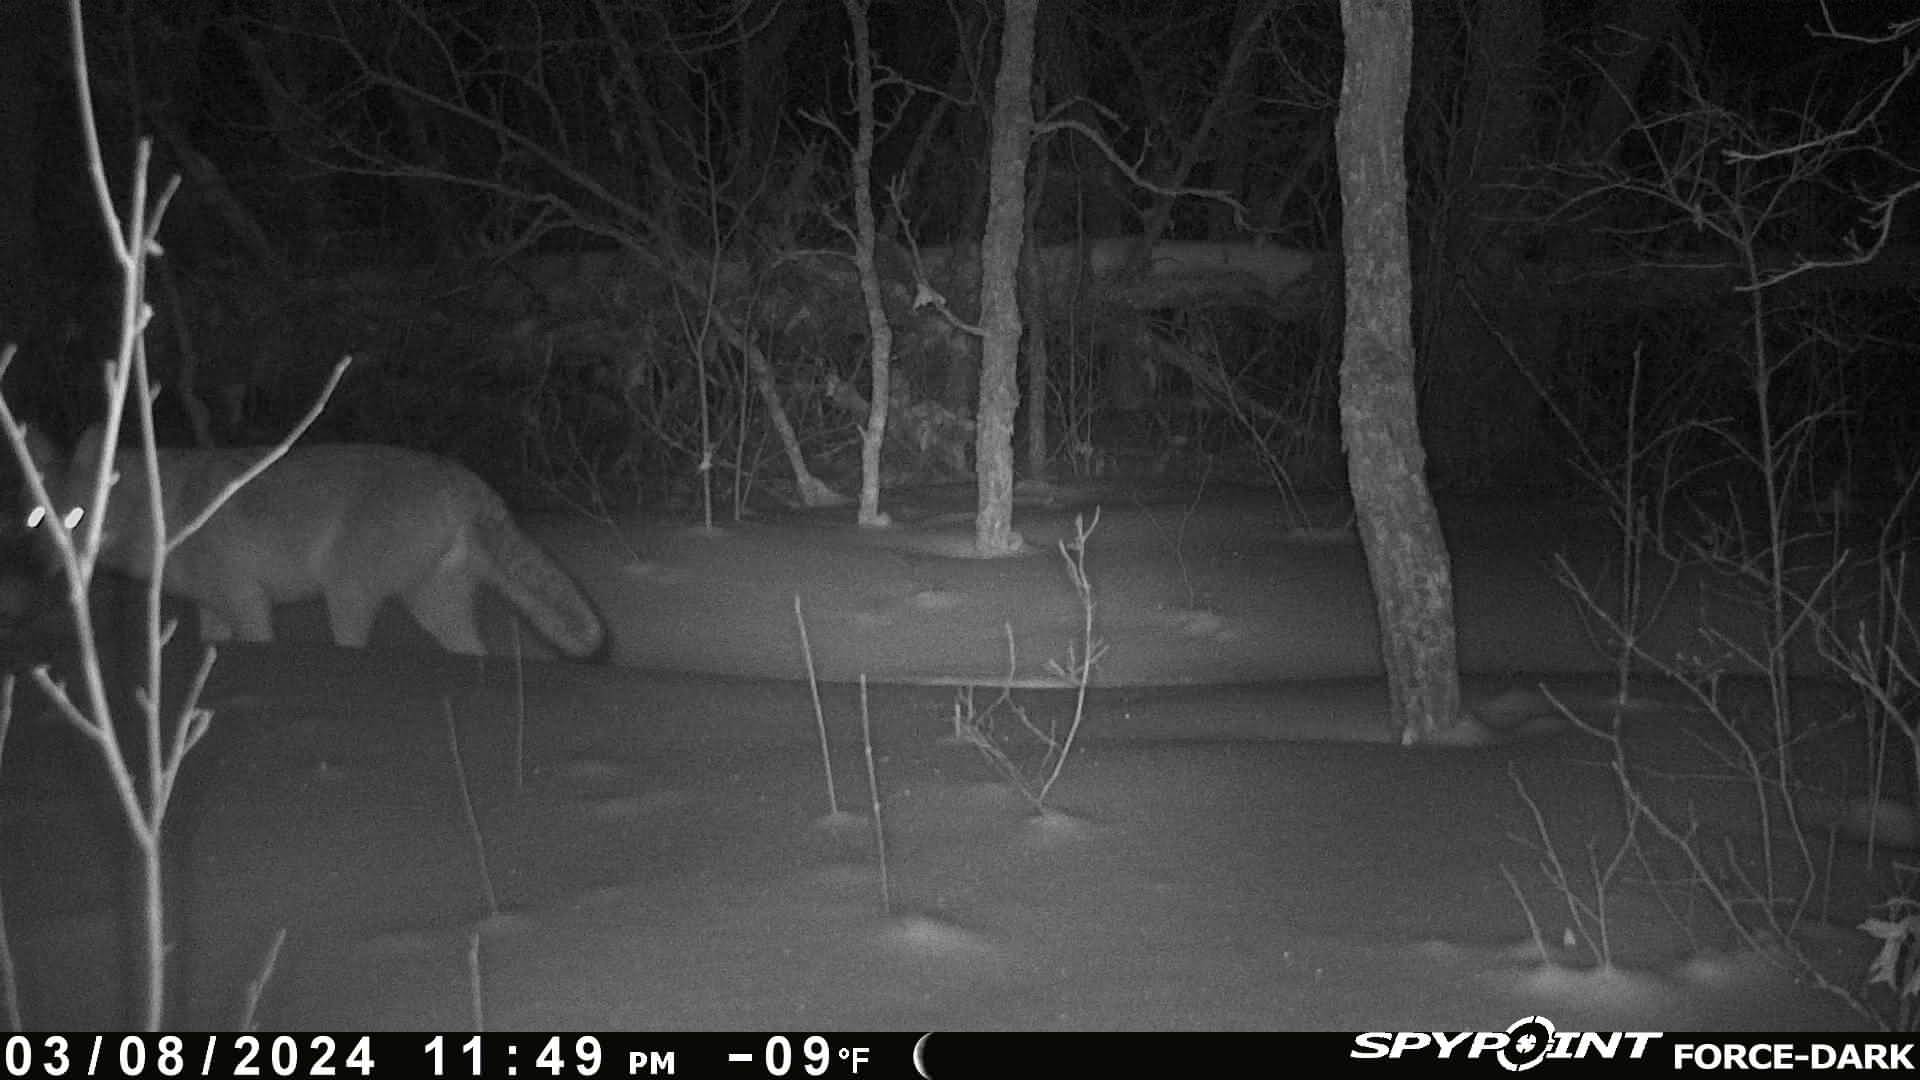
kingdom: Animalia
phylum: Chordata
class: Mammalia
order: Carnivora
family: Canidae
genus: Canis
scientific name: Canis latrans
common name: Coyote
